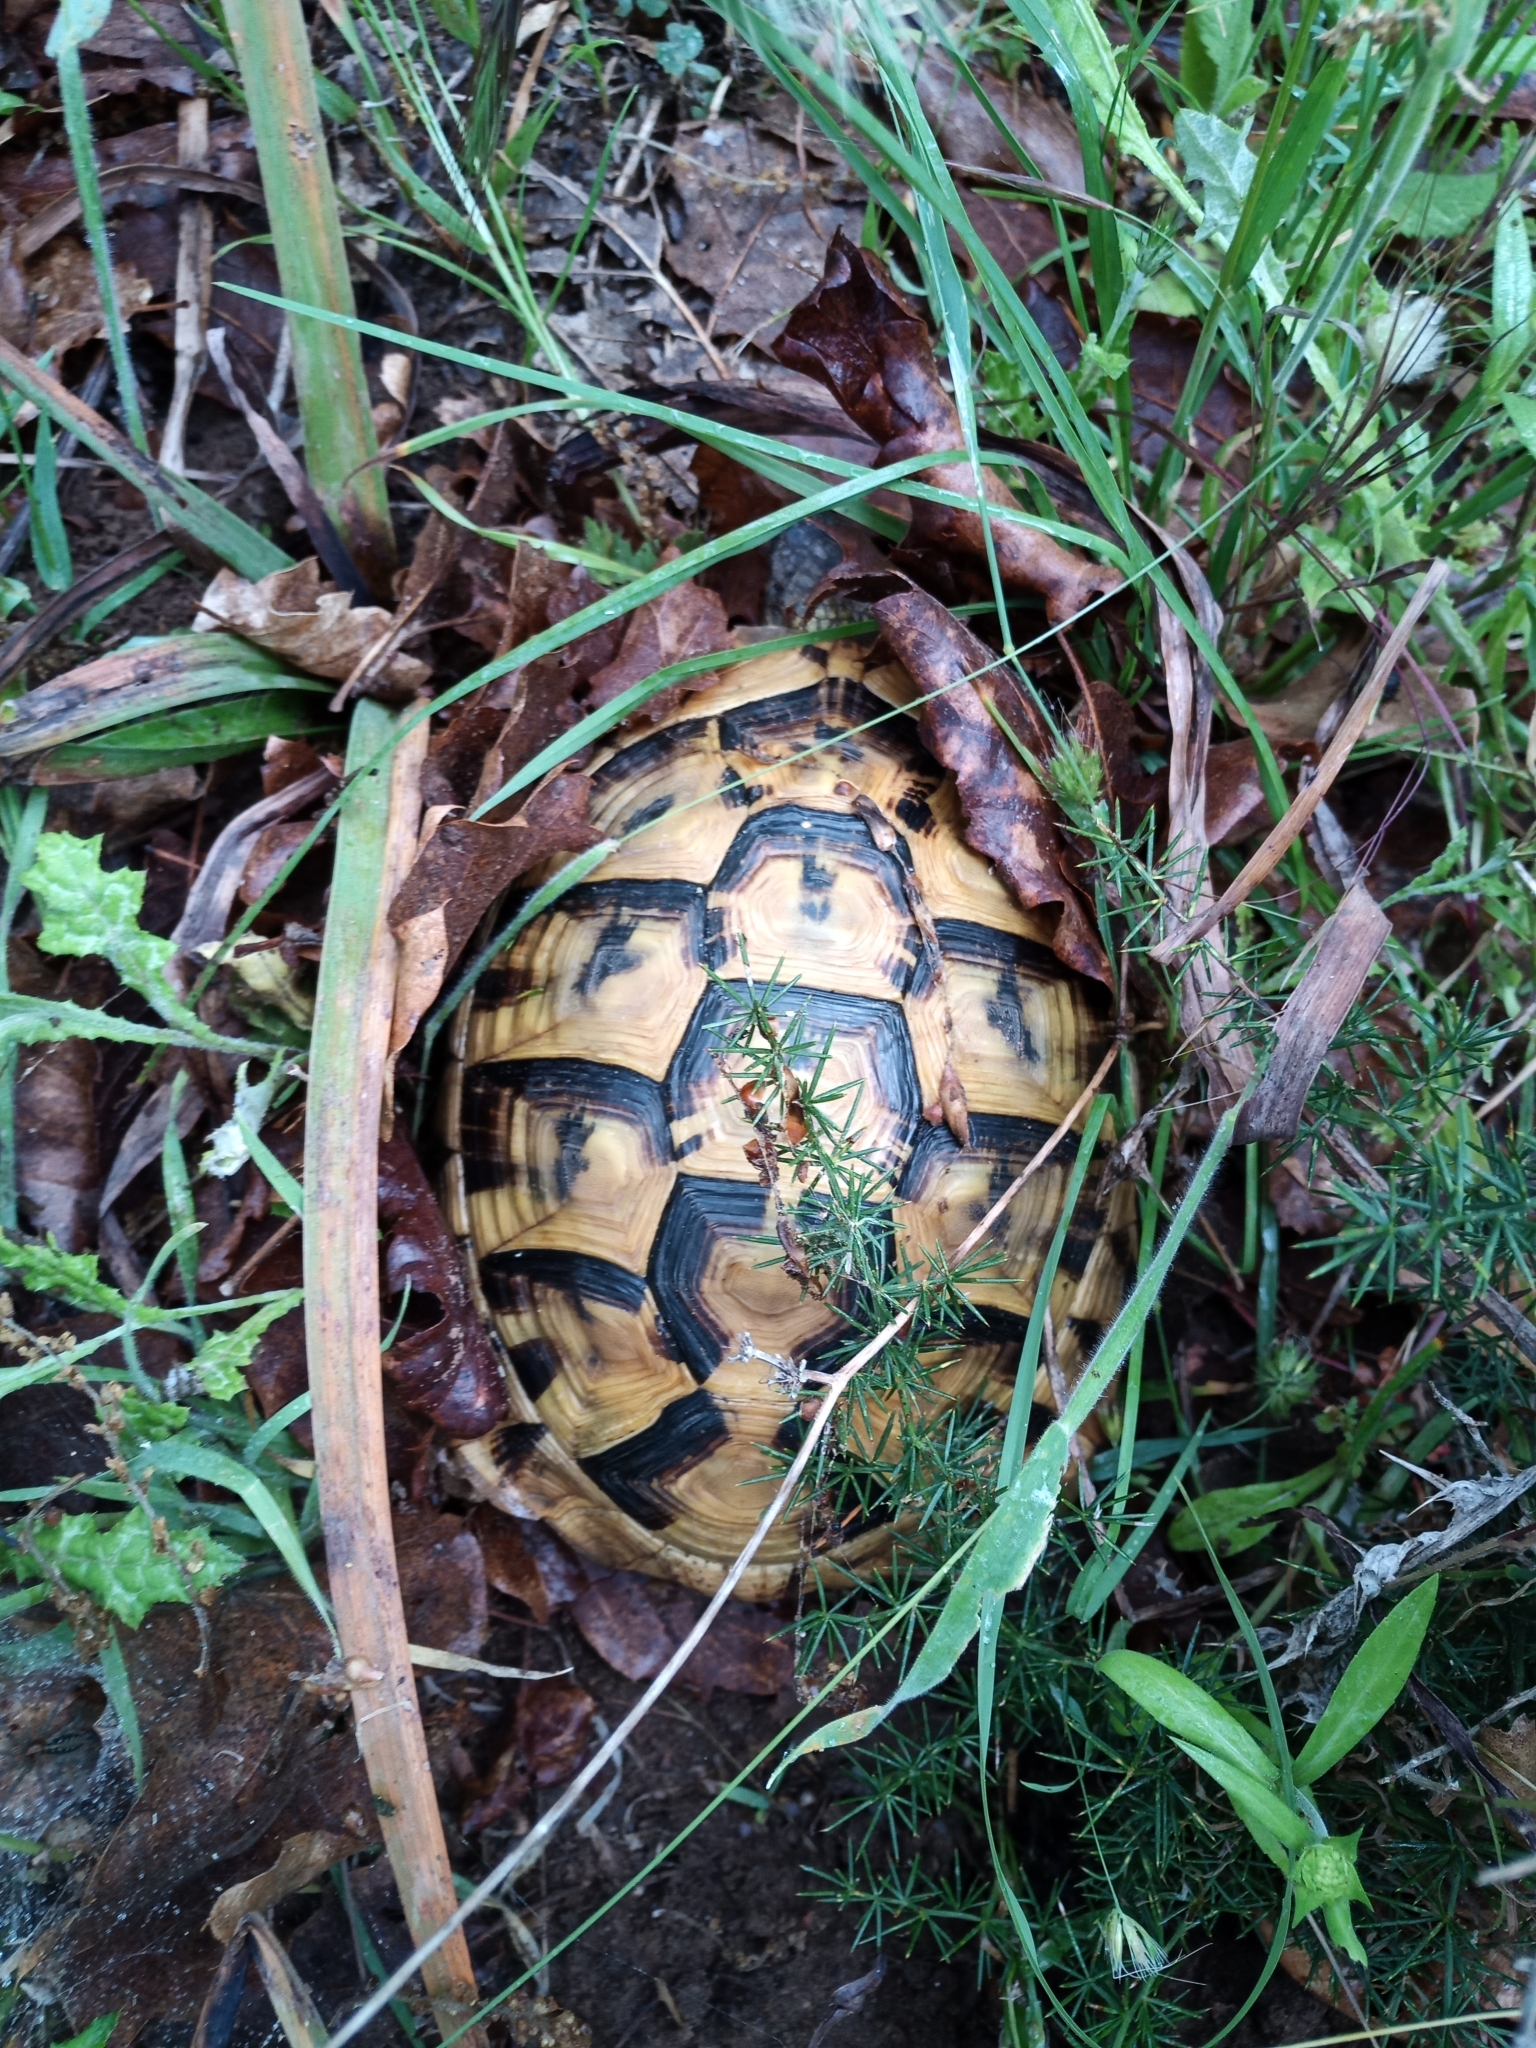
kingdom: Animalia
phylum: Chordata
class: Testudines
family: Testudinidae
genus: Testudo
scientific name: Testudo hermanni
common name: Hermann's tortoise
